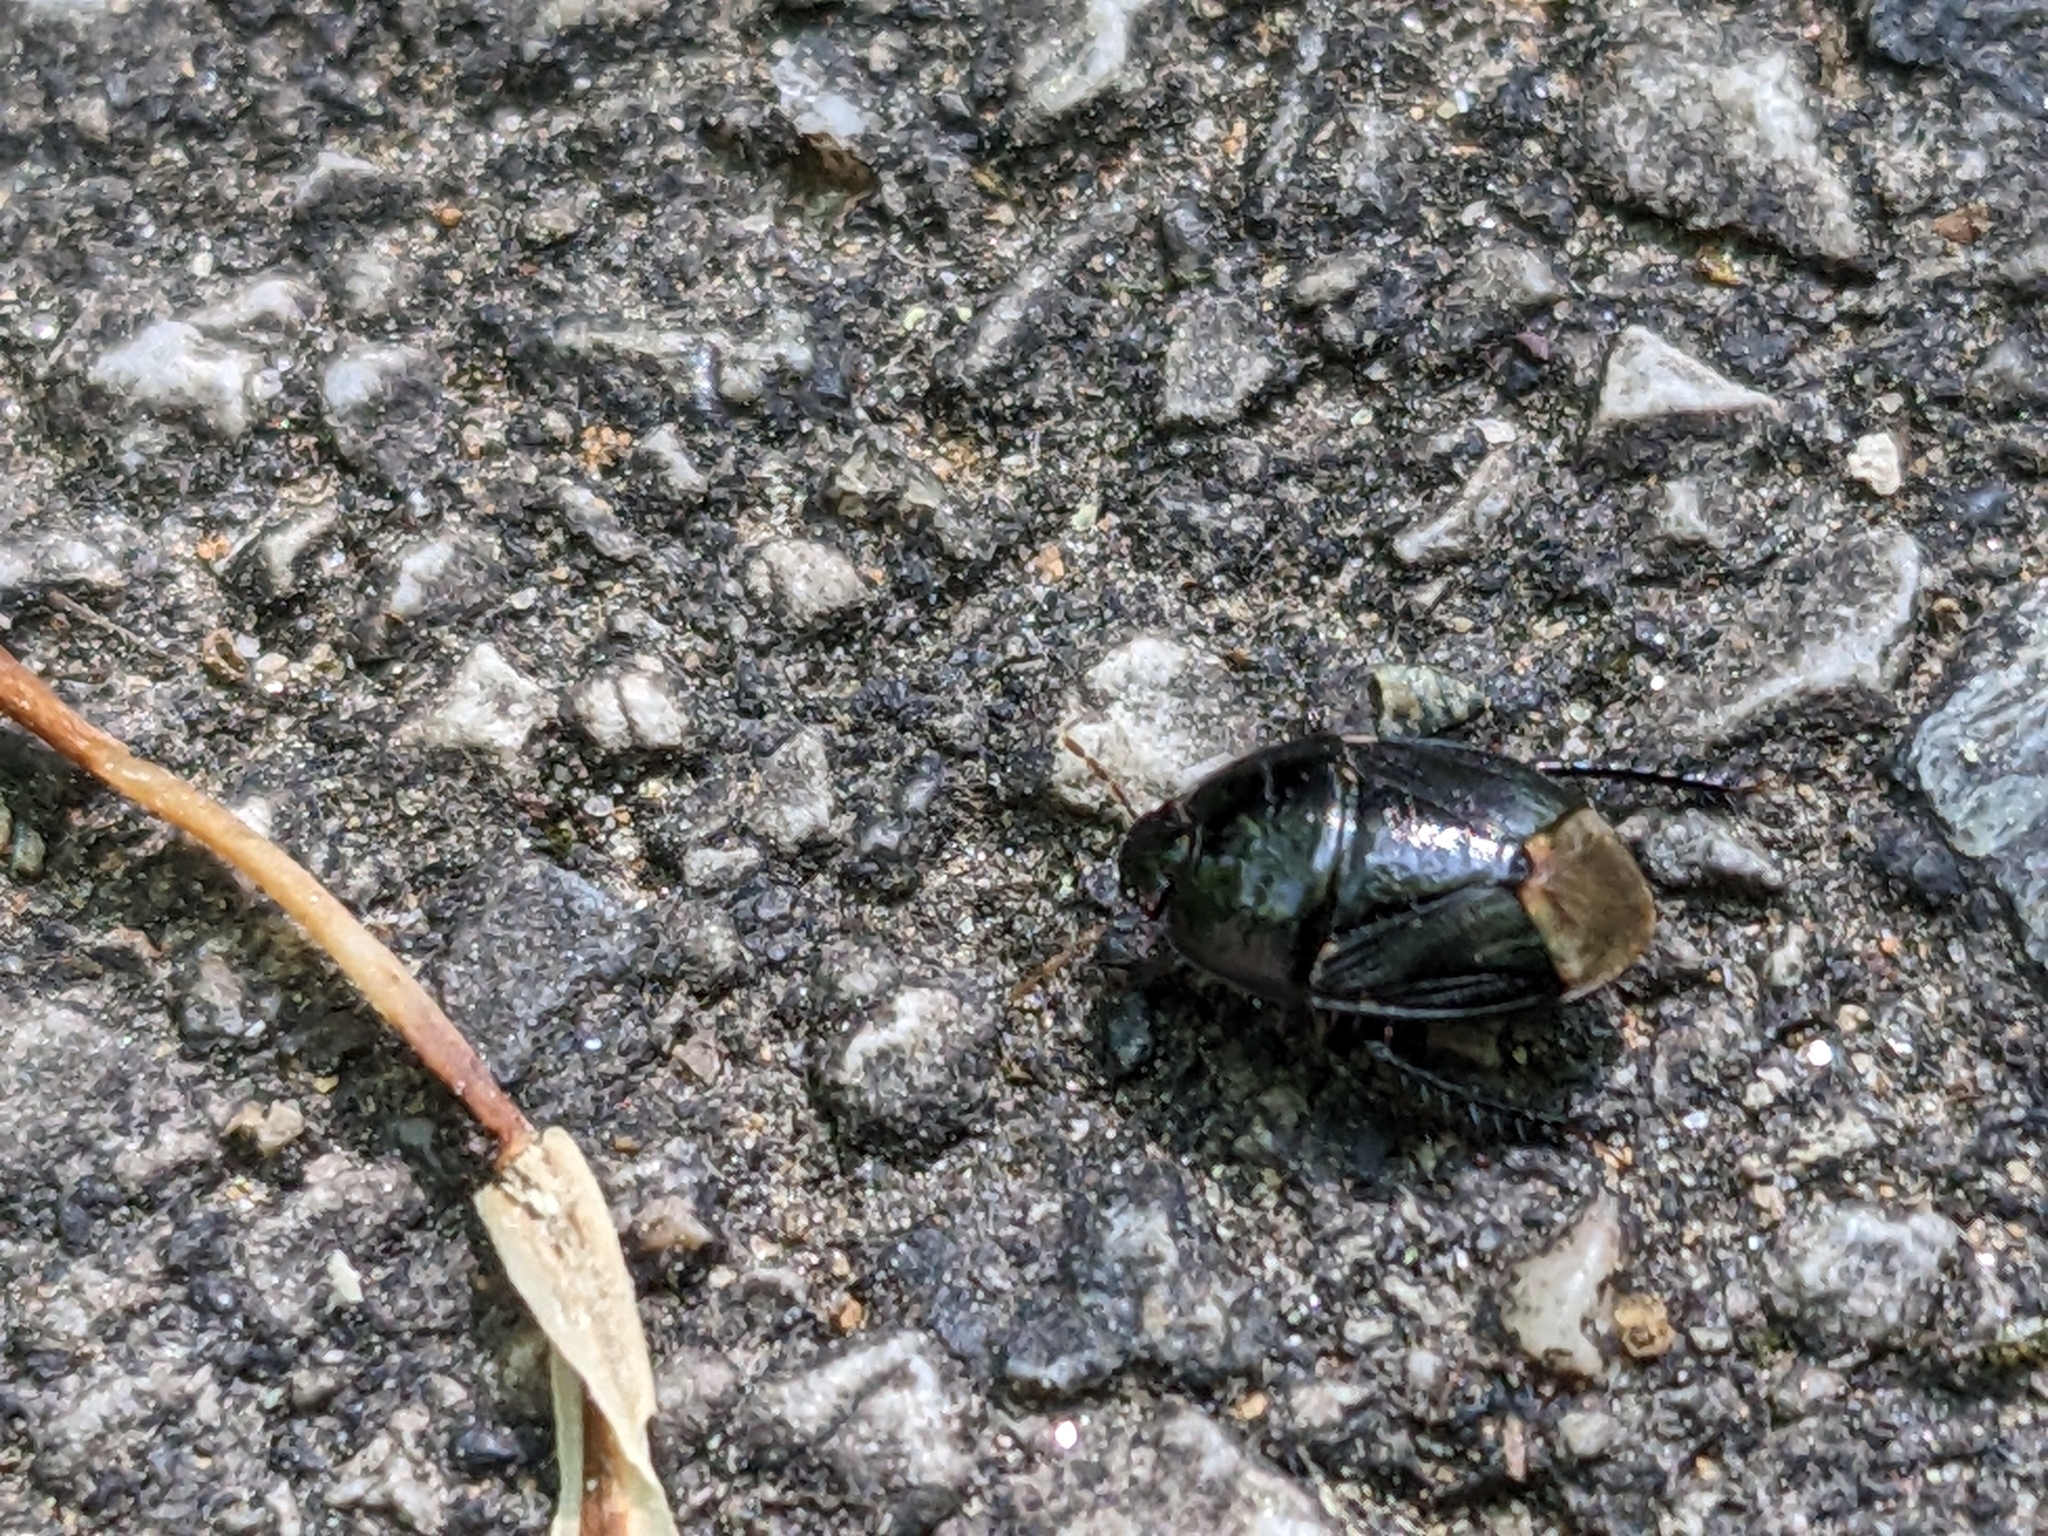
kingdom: Animalia
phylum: Arthropoda
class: Insecta
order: Hemiptera
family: Cydnidae
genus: Pangaeus
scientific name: Pangaeus bilineatus
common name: Burrower bug
